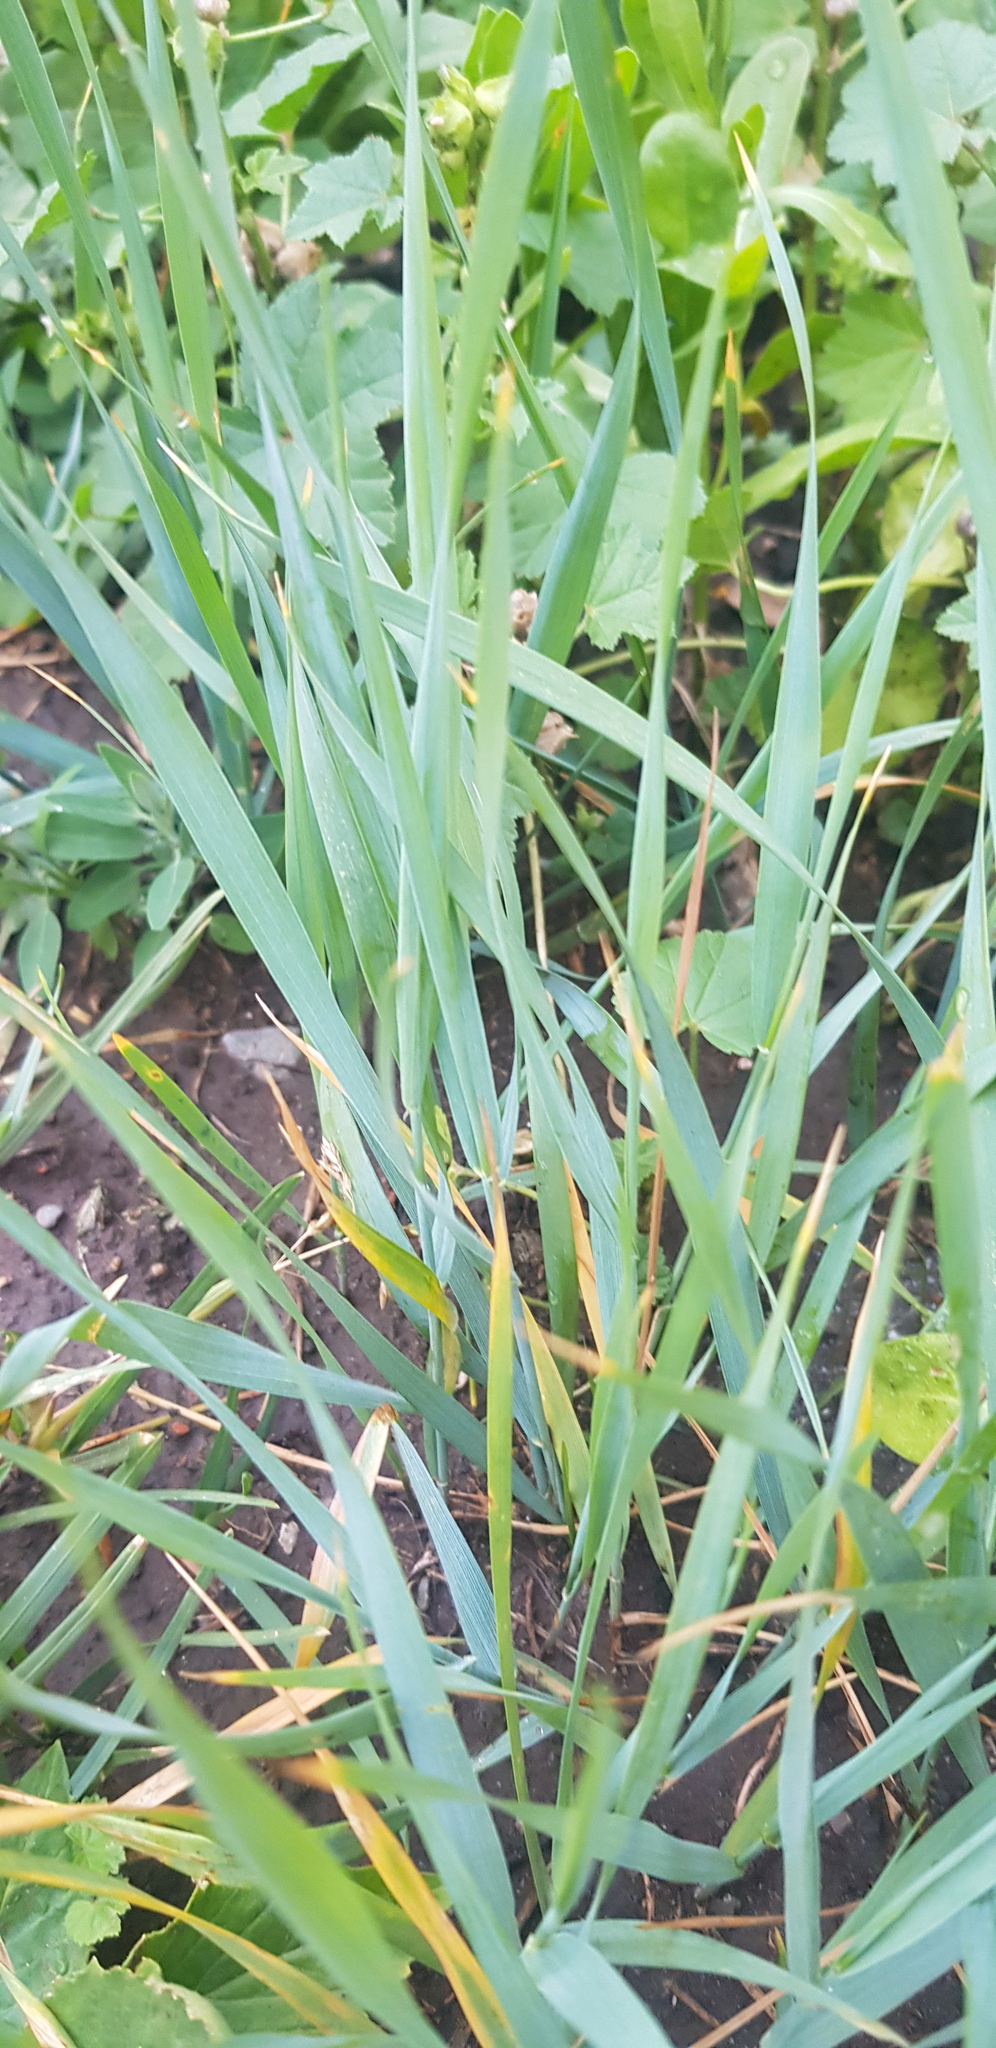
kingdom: Plantae
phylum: Tracheophyta
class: Liliopsida
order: Poales
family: Poaceae
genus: Leymus
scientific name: Leymus chinensis
